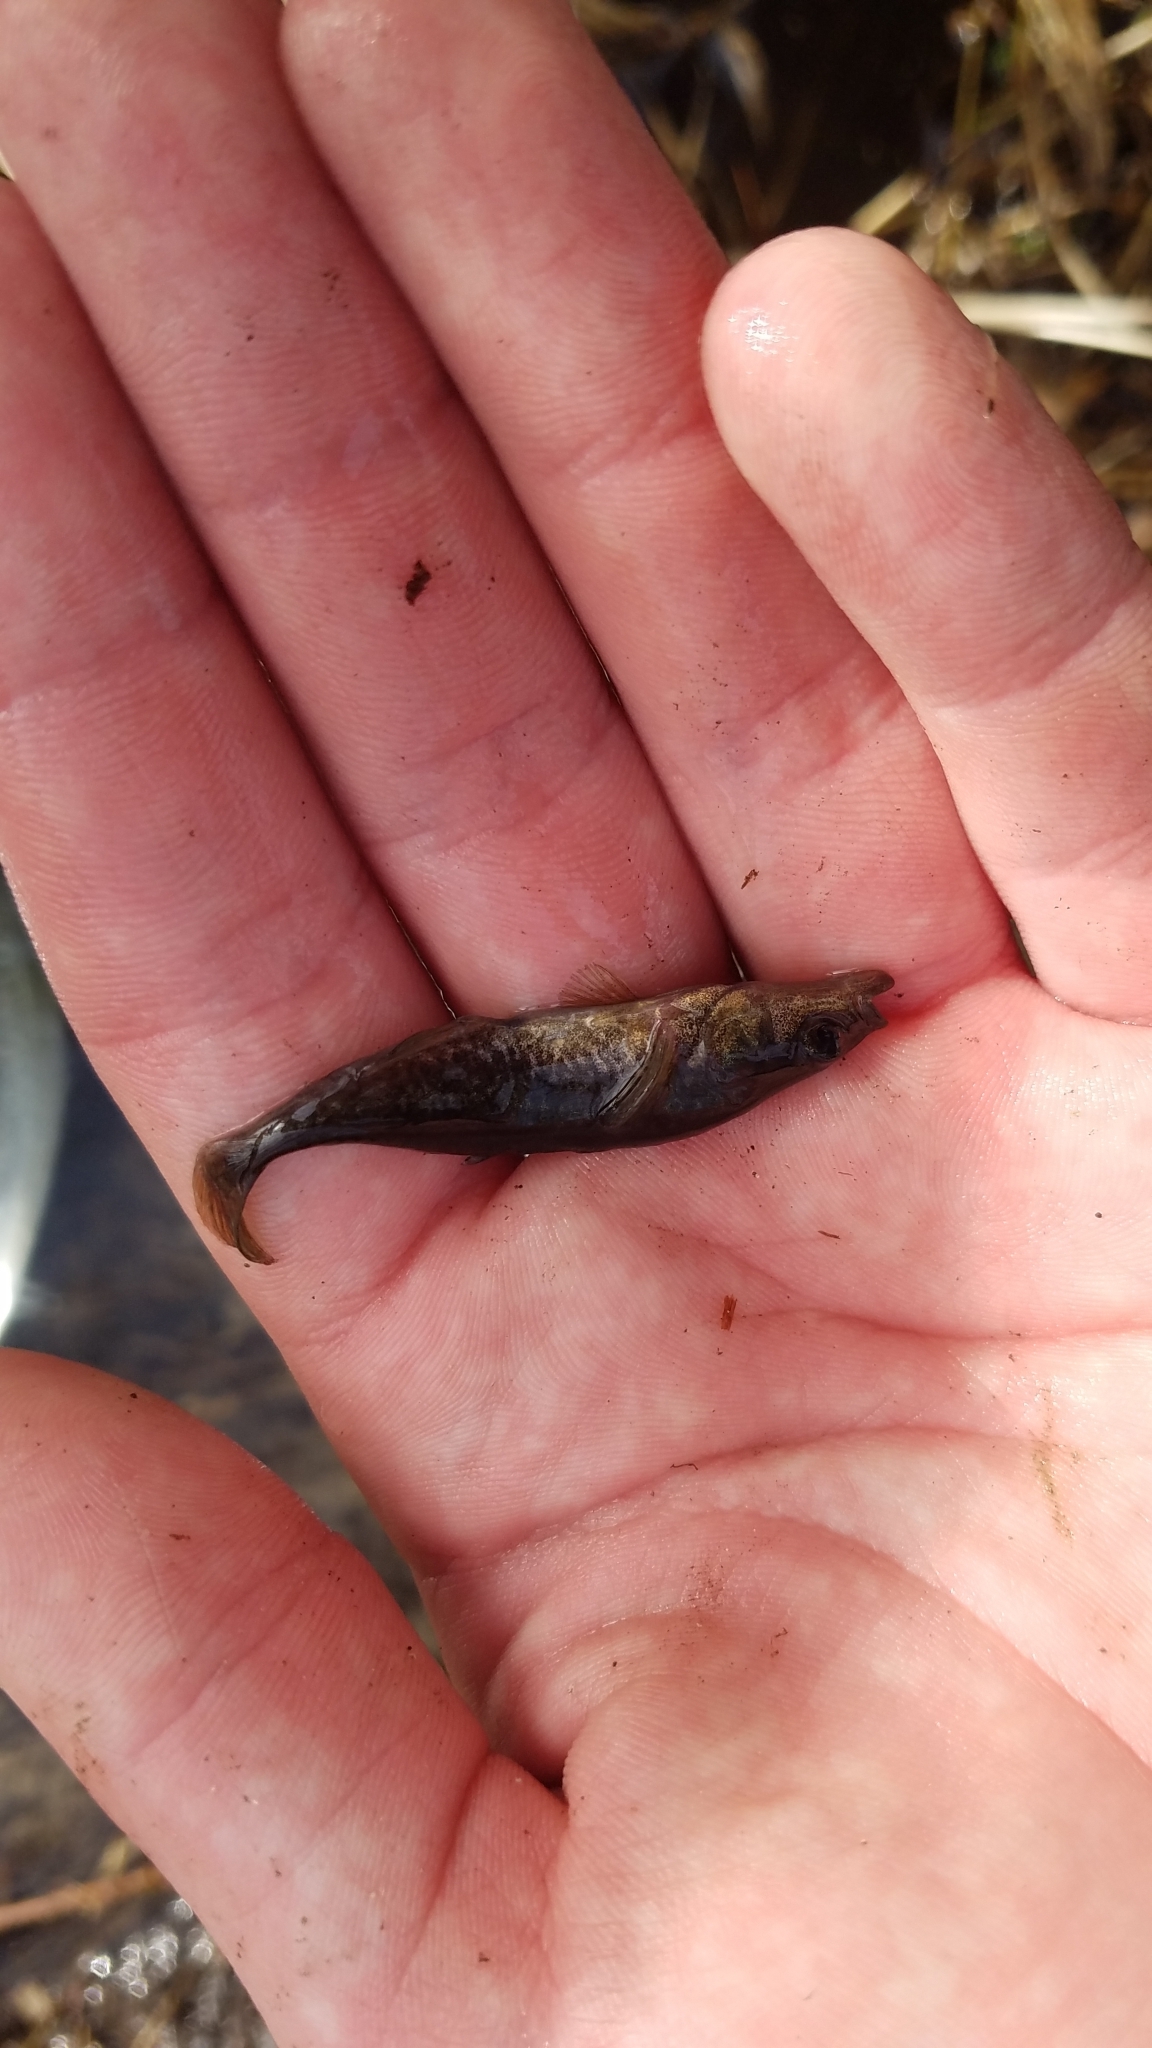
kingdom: Animalia
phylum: Chordata
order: Gasterosteiformes
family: Gasterosteidae
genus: Culaea
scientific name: Culaea inconstans
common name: Brook stickleback
